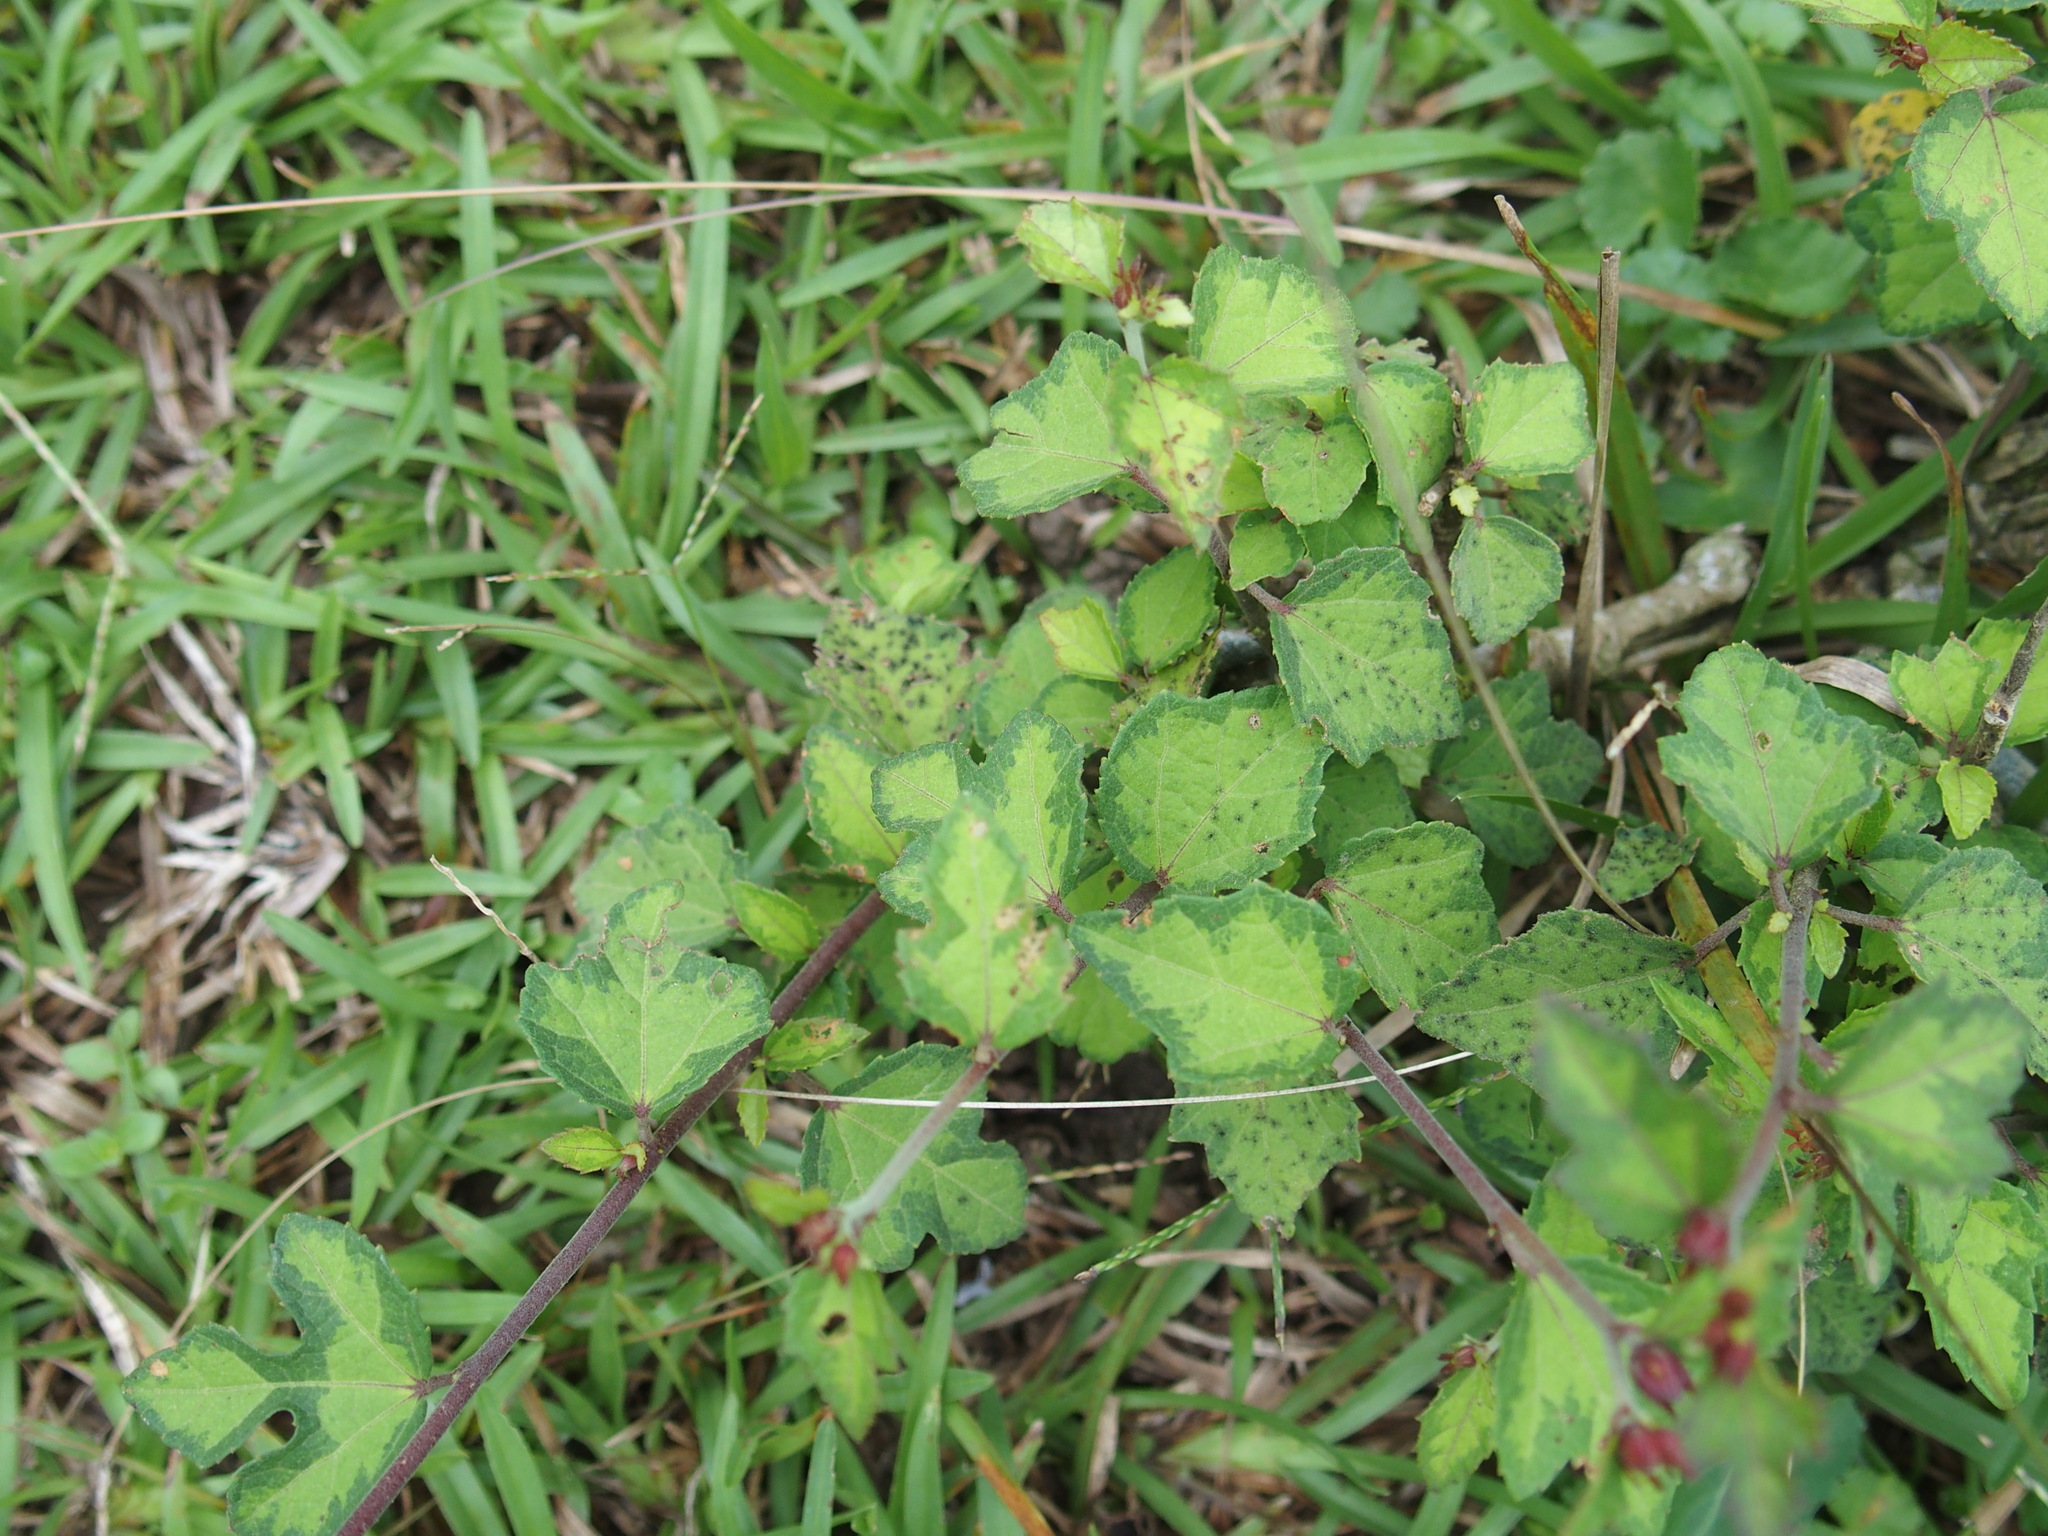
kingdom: Plantae
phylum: Tracheophyta
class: Magnoliopsida
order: Malvales
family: Malvaceae
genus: Urena
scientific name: Urena procumbens
